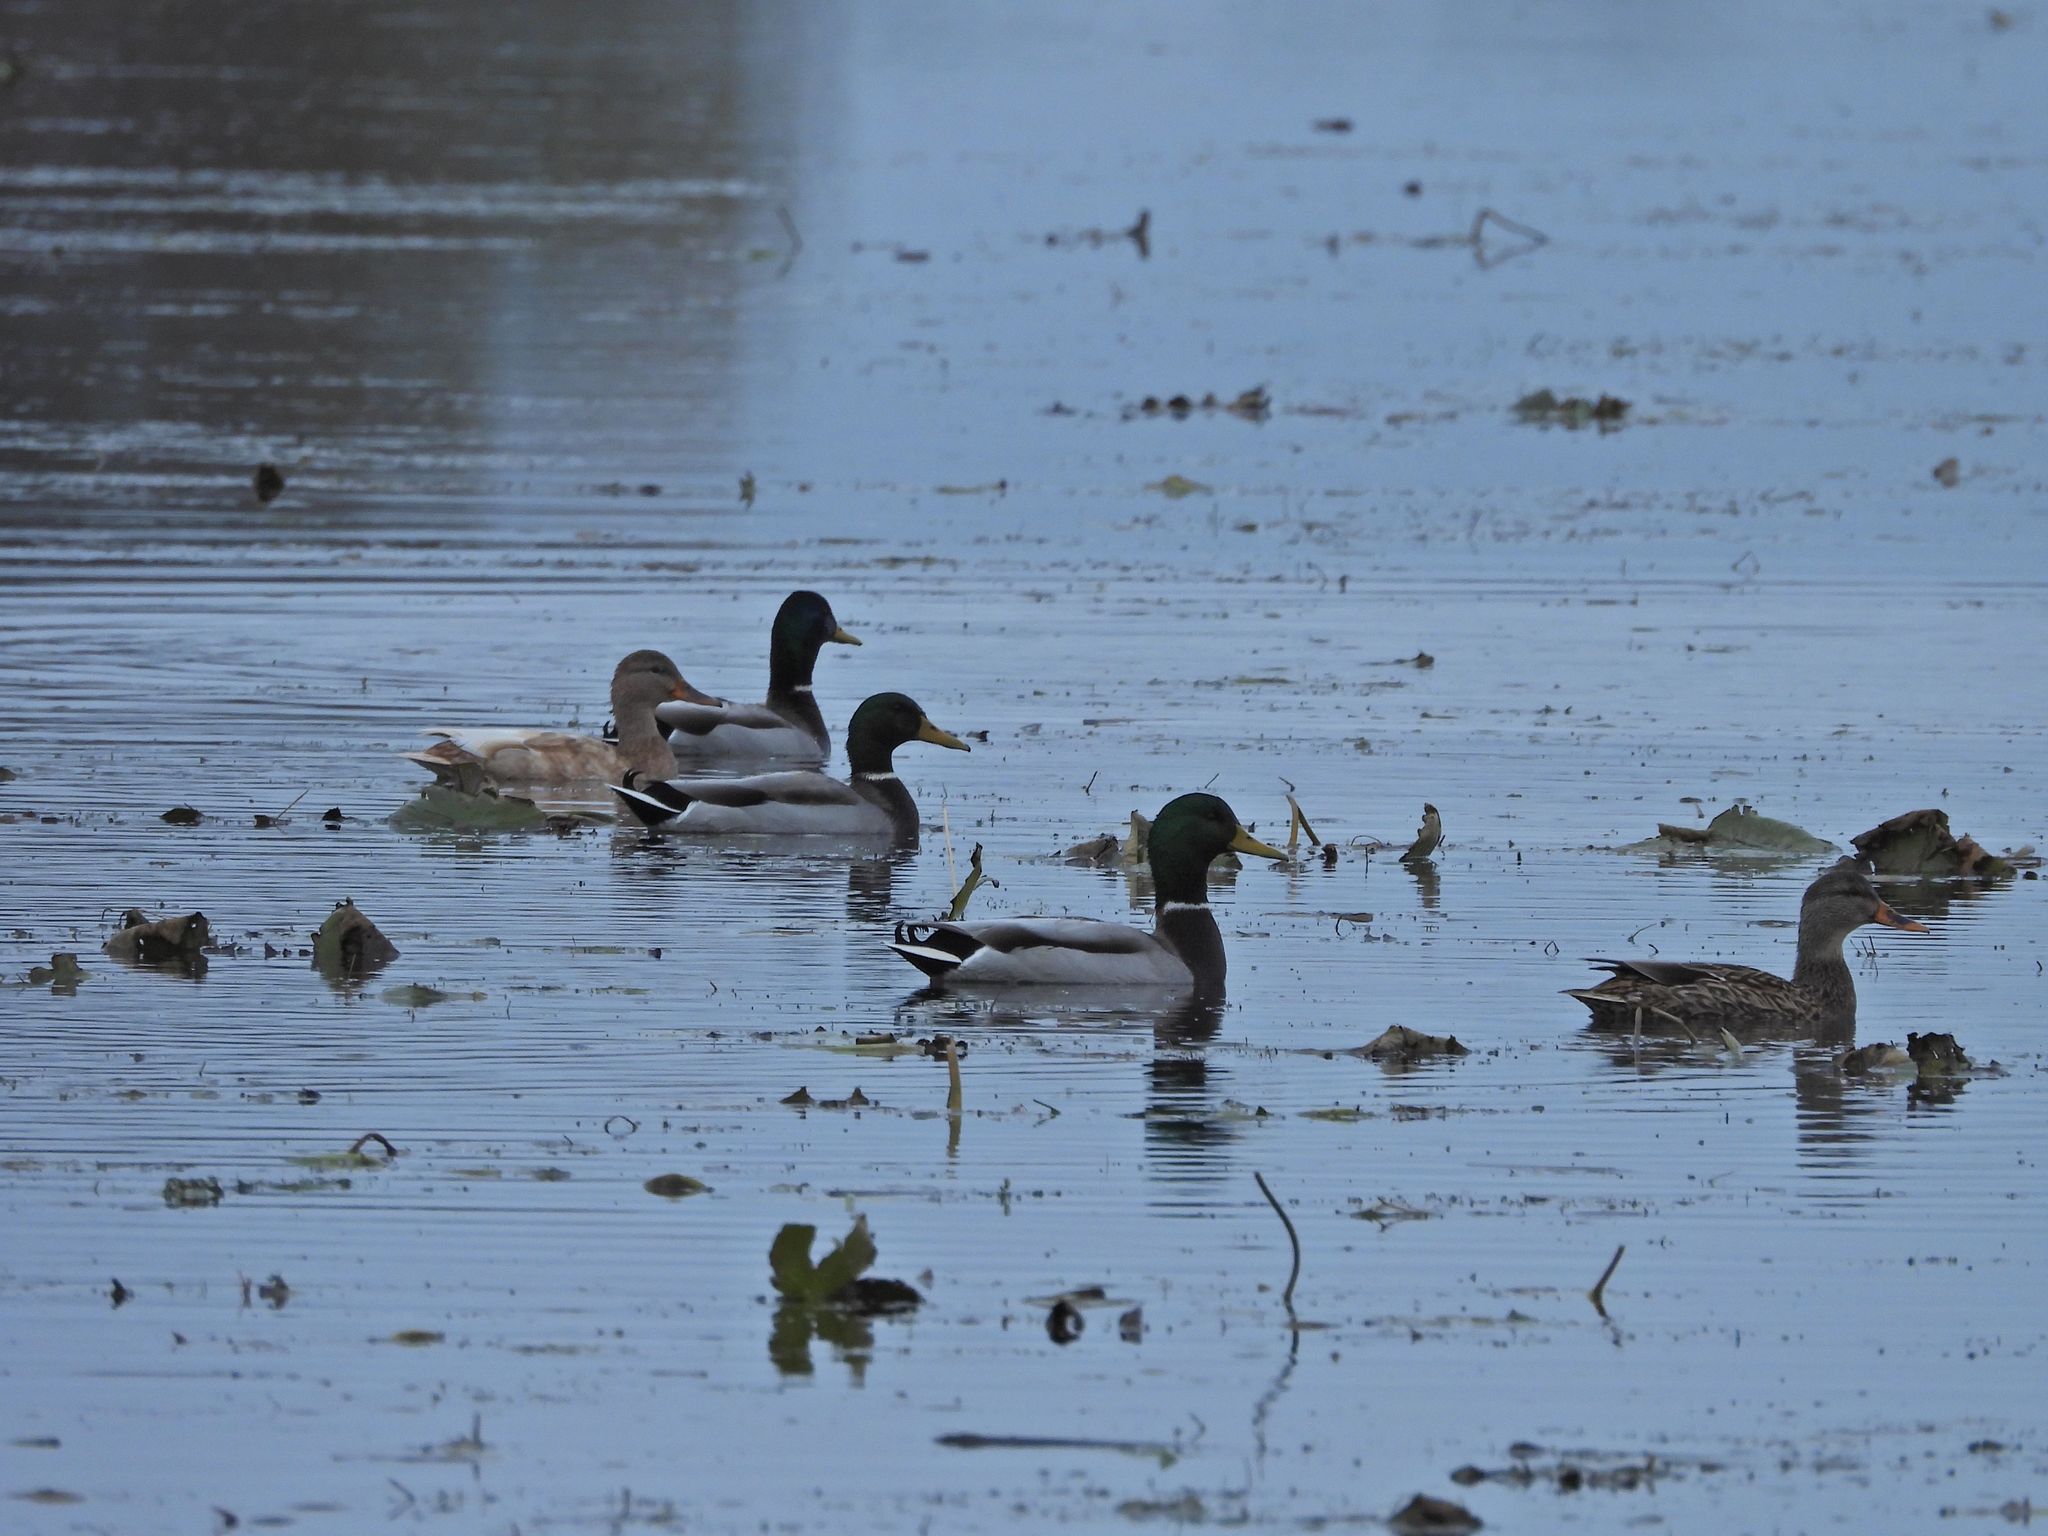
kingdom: Animalia
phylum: Chordata
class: Aves
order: Anseriformes
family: Anatidae
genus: Anas
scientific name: Anas platyrhynchos
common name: Mallard
